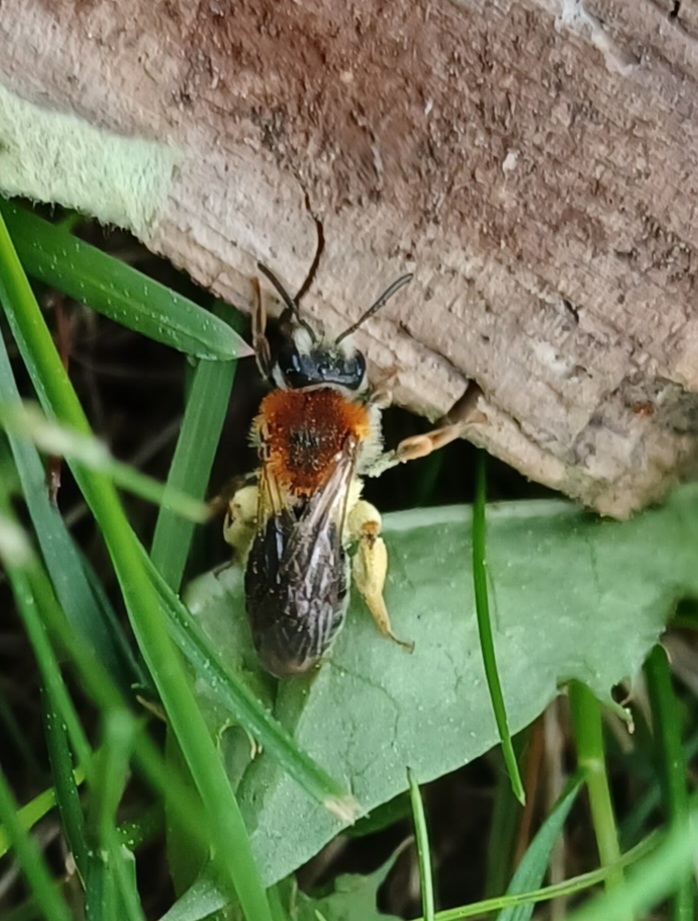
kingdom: Animalia
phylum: Arthropoda
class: Insecta
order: Hymenoptera
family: Andrenidae
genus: Andrena
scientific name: Andrena haemorrhoa
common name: Early mining bee
